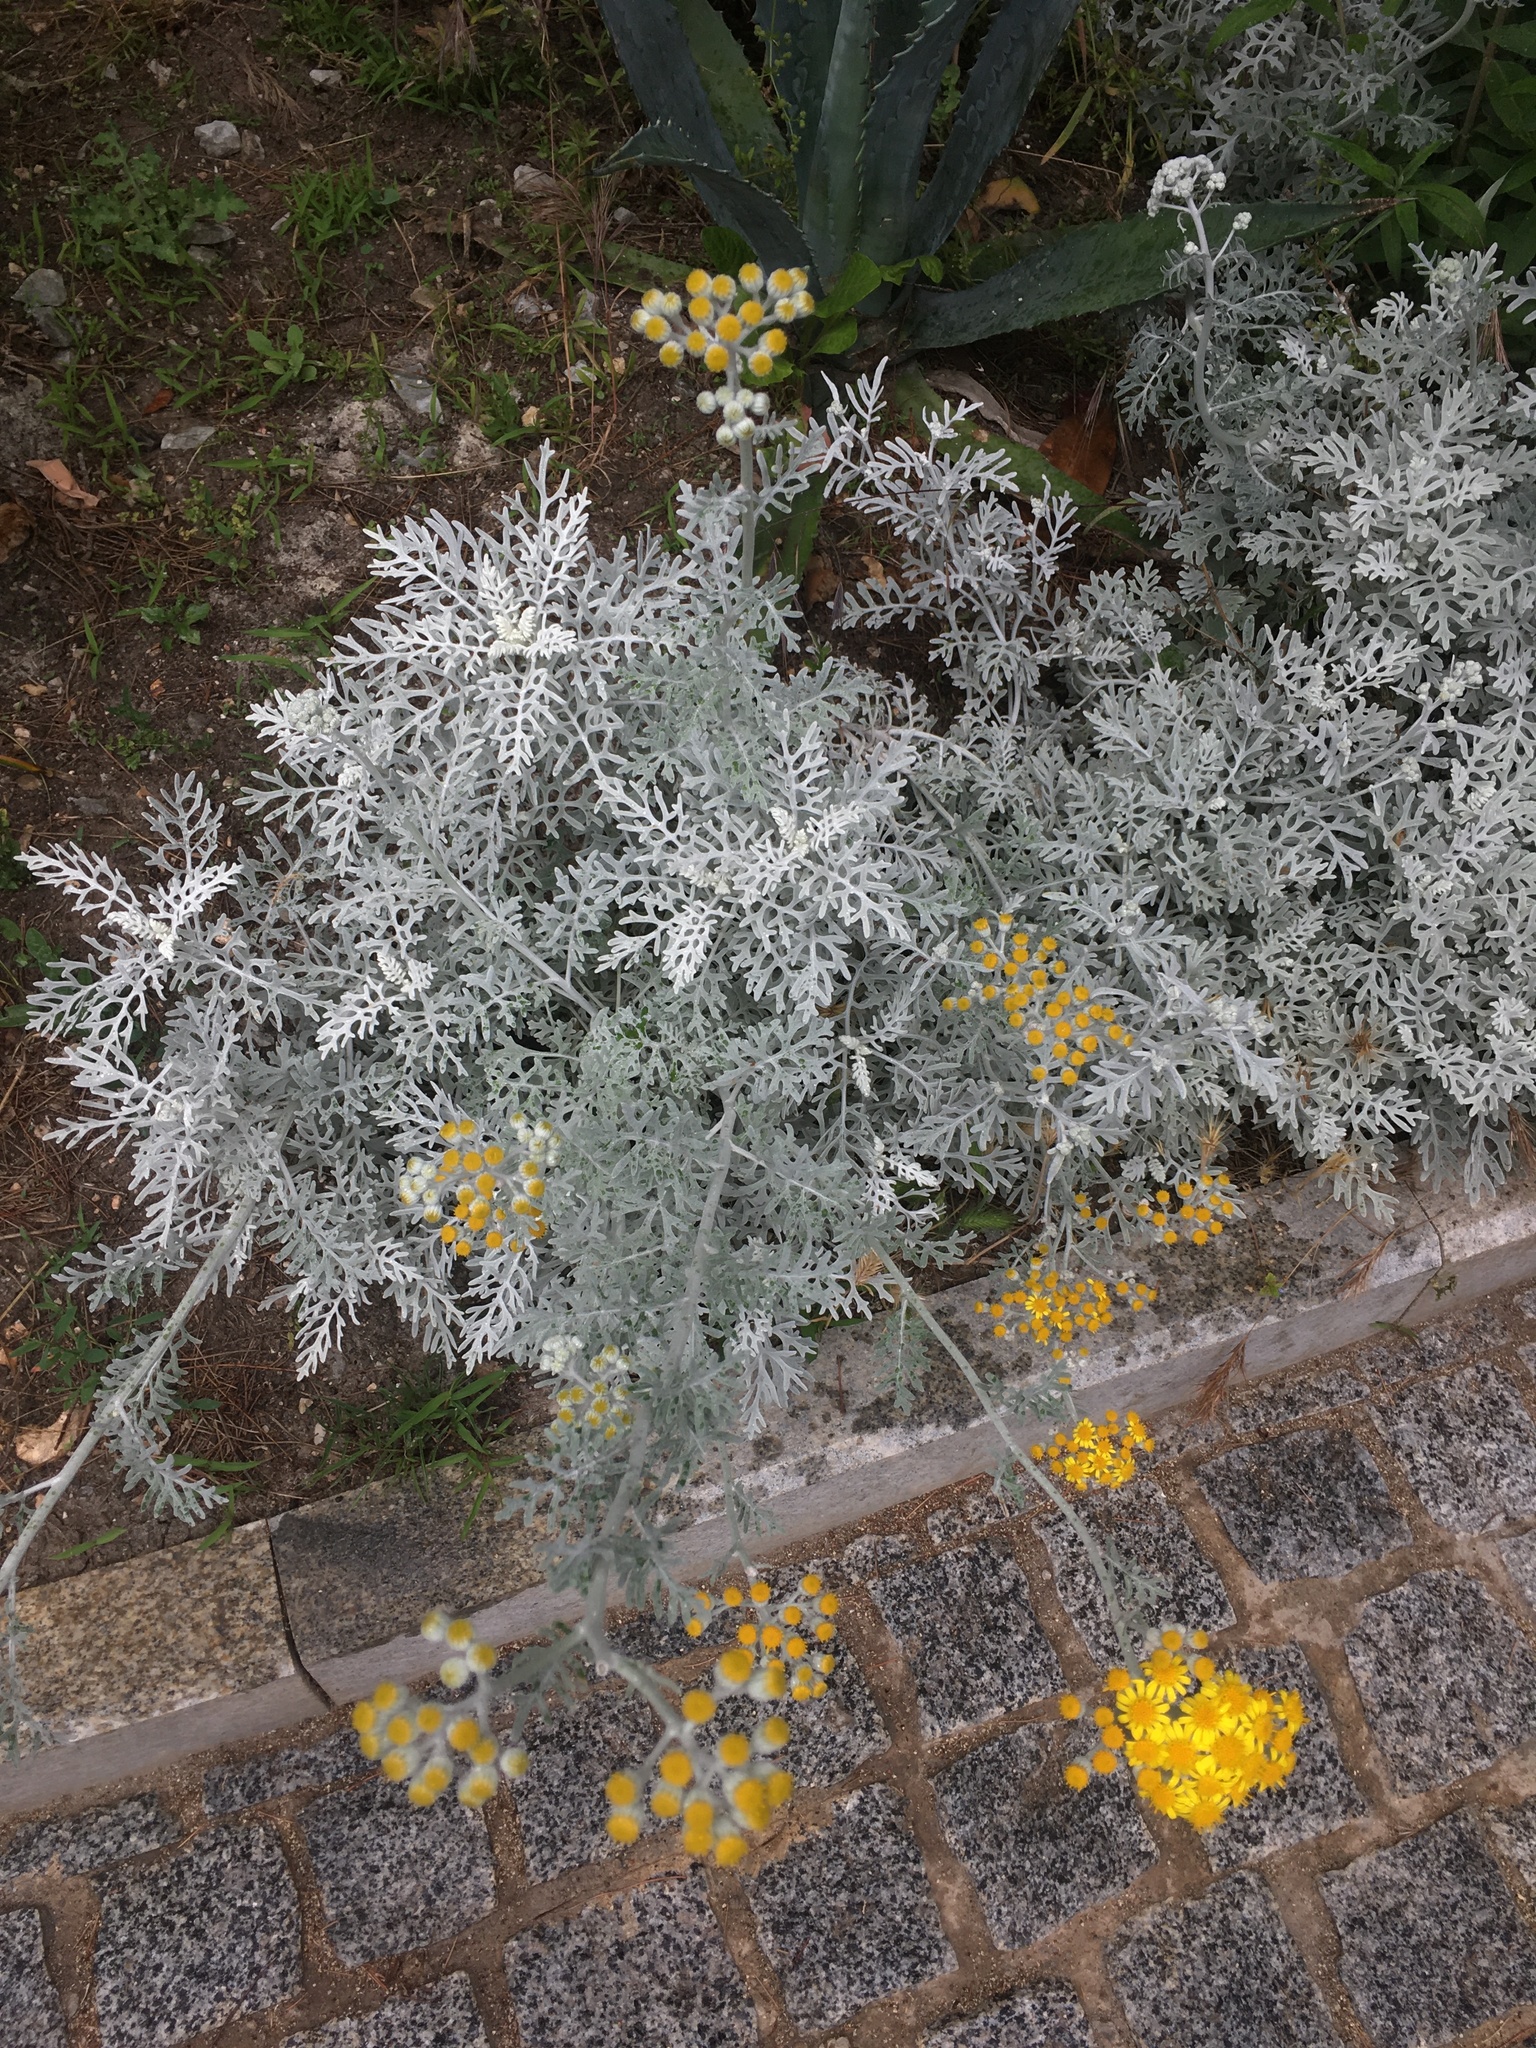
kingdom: Plantae
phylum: Tracheophyta
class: Magnoliopsida
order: Asterales
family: Asteraceae
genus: Jacobaea
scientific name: Jacobaea maritima
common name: Silver ragwort
